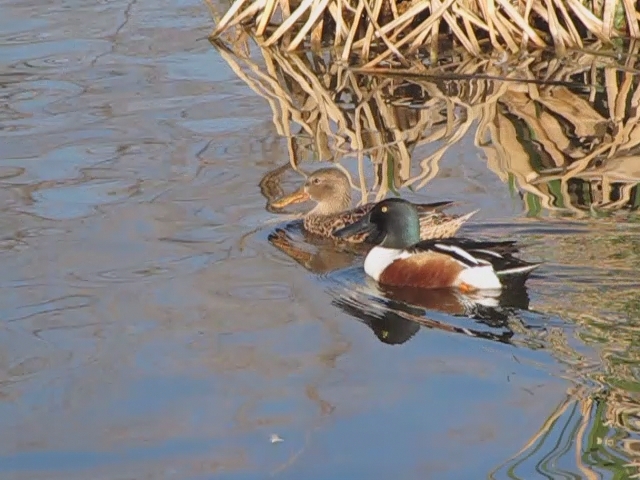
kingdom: Animalia
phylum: Chordata
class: Aves
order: Anseriformes
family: Anatidae
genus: Spatula
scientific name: Spatula clypeata
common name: Northern shoveler
